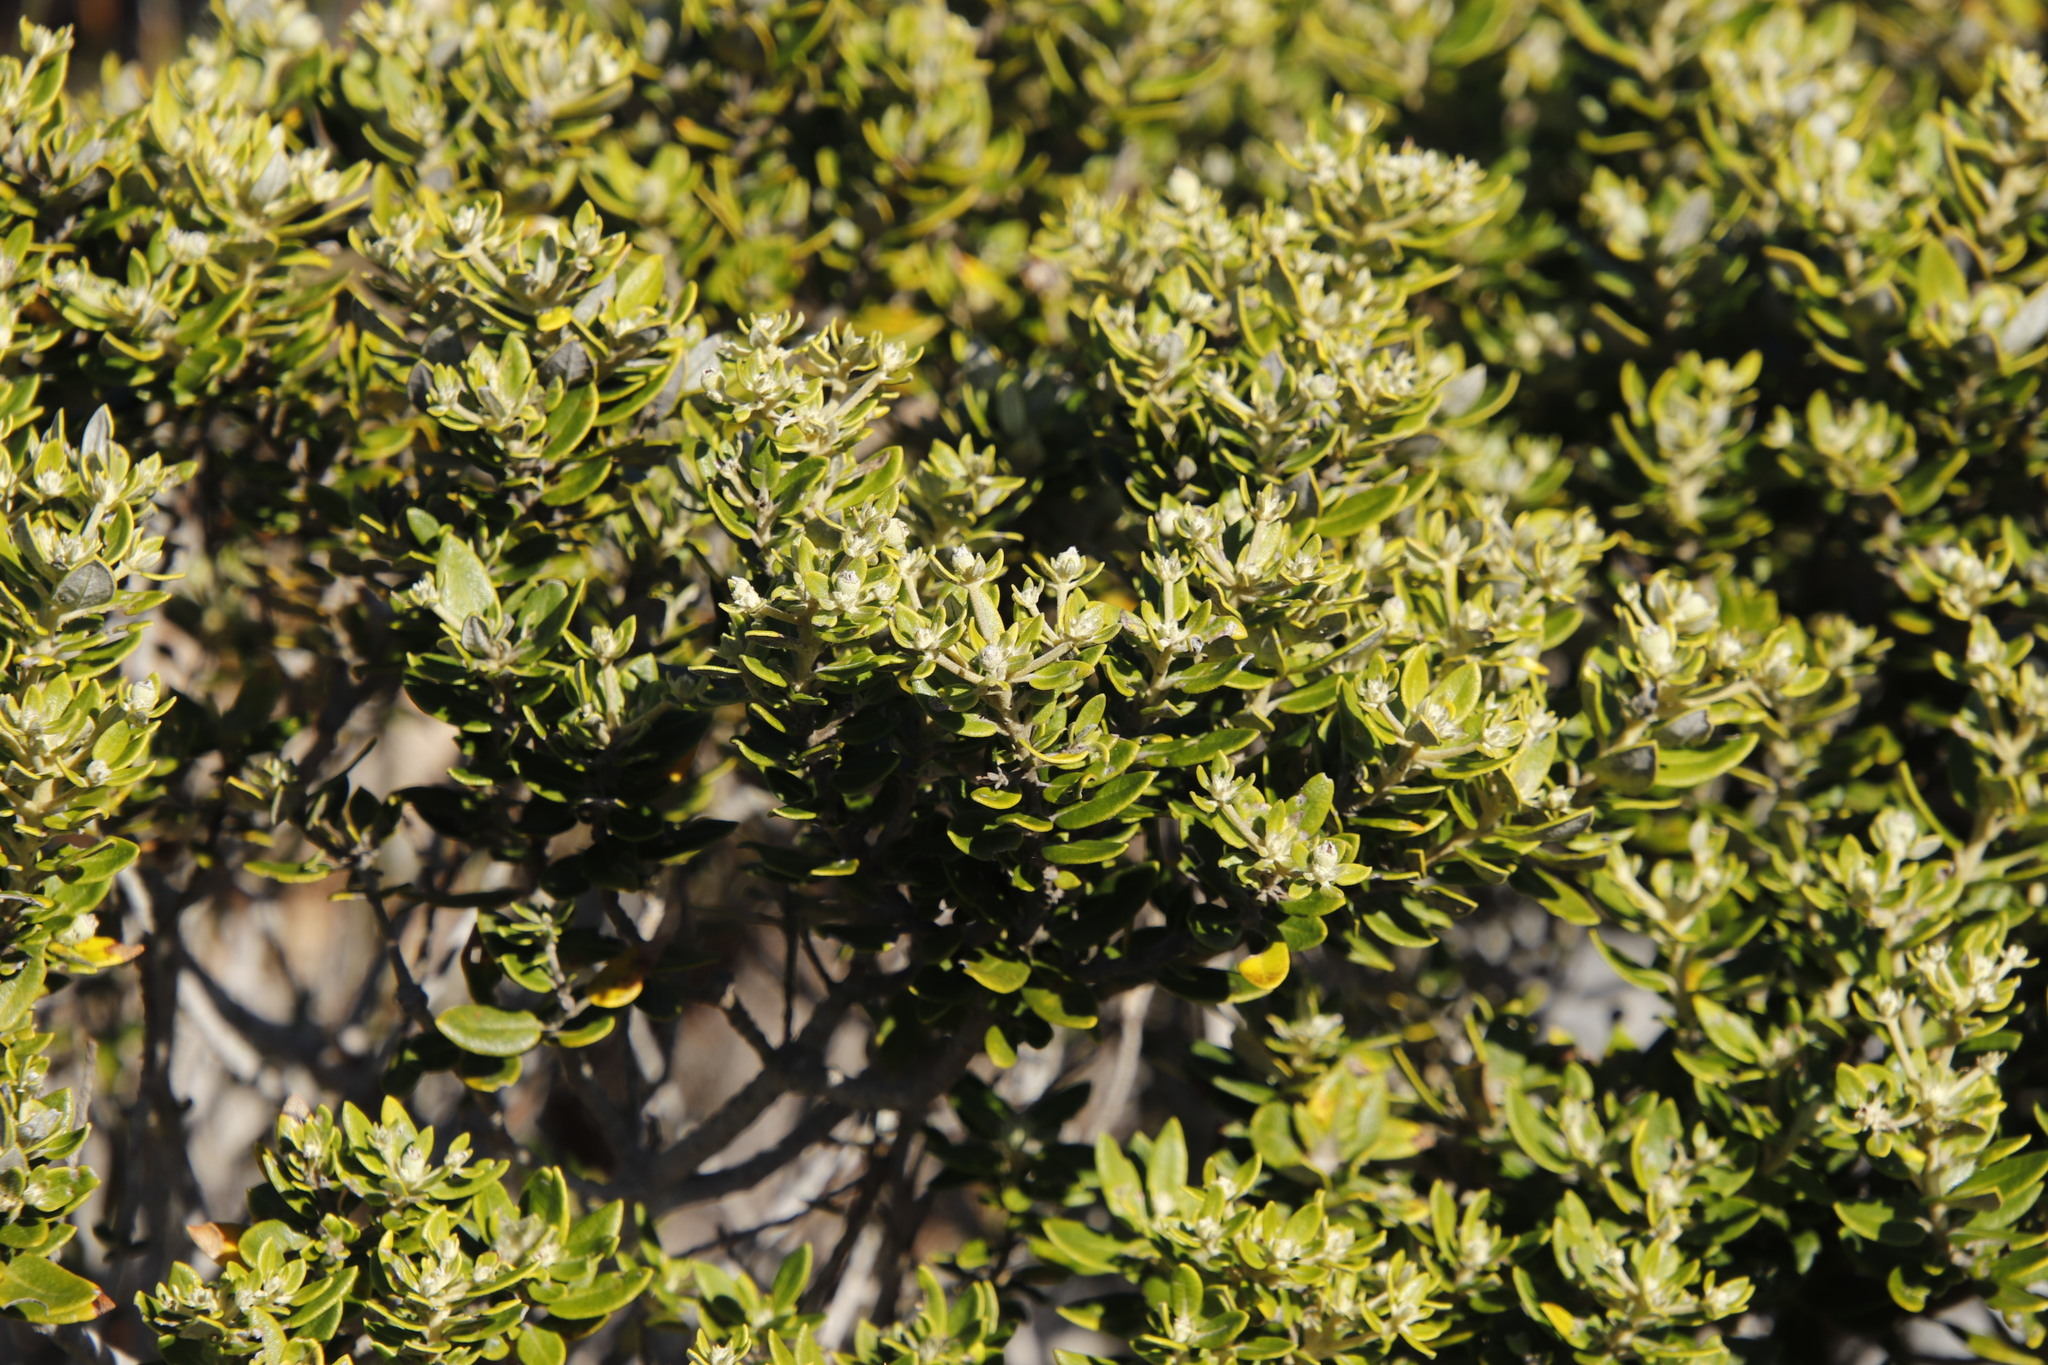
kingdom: Plantae
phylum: Tracheophyta
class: Magnoliopsida
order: Rosales
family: Rhamnaceae
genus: Phylica
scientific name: Phylica buxifolia
